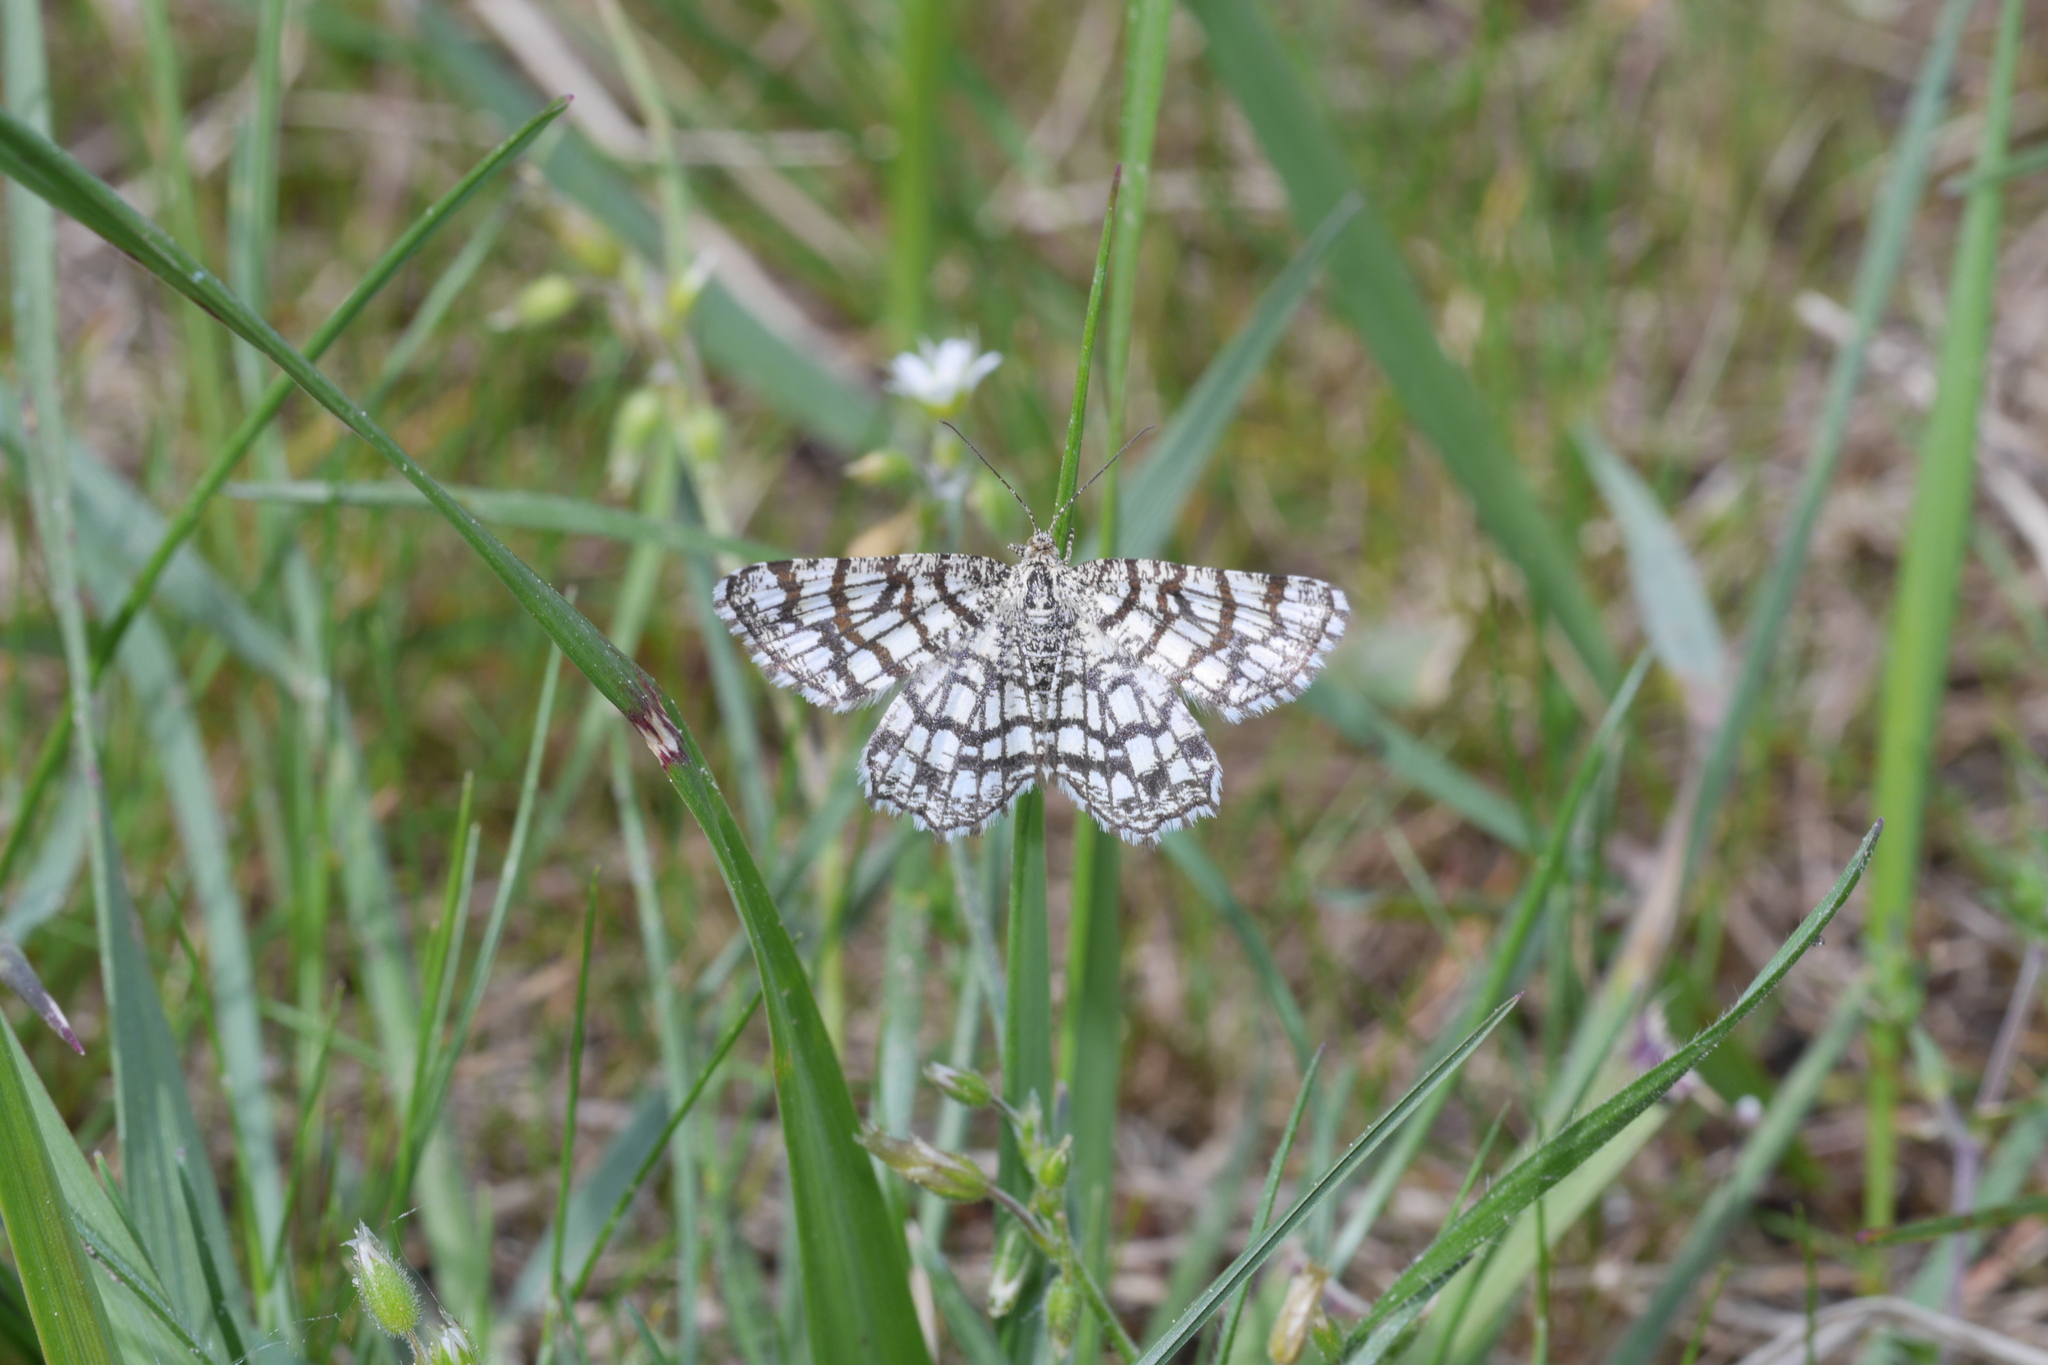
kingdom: Animalia
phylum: Arthropoda
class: Insecta
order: Lepidoptera
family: Geometridae
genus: Chiasmia
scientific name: Chiasmia clathrata
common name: Latticed heath
